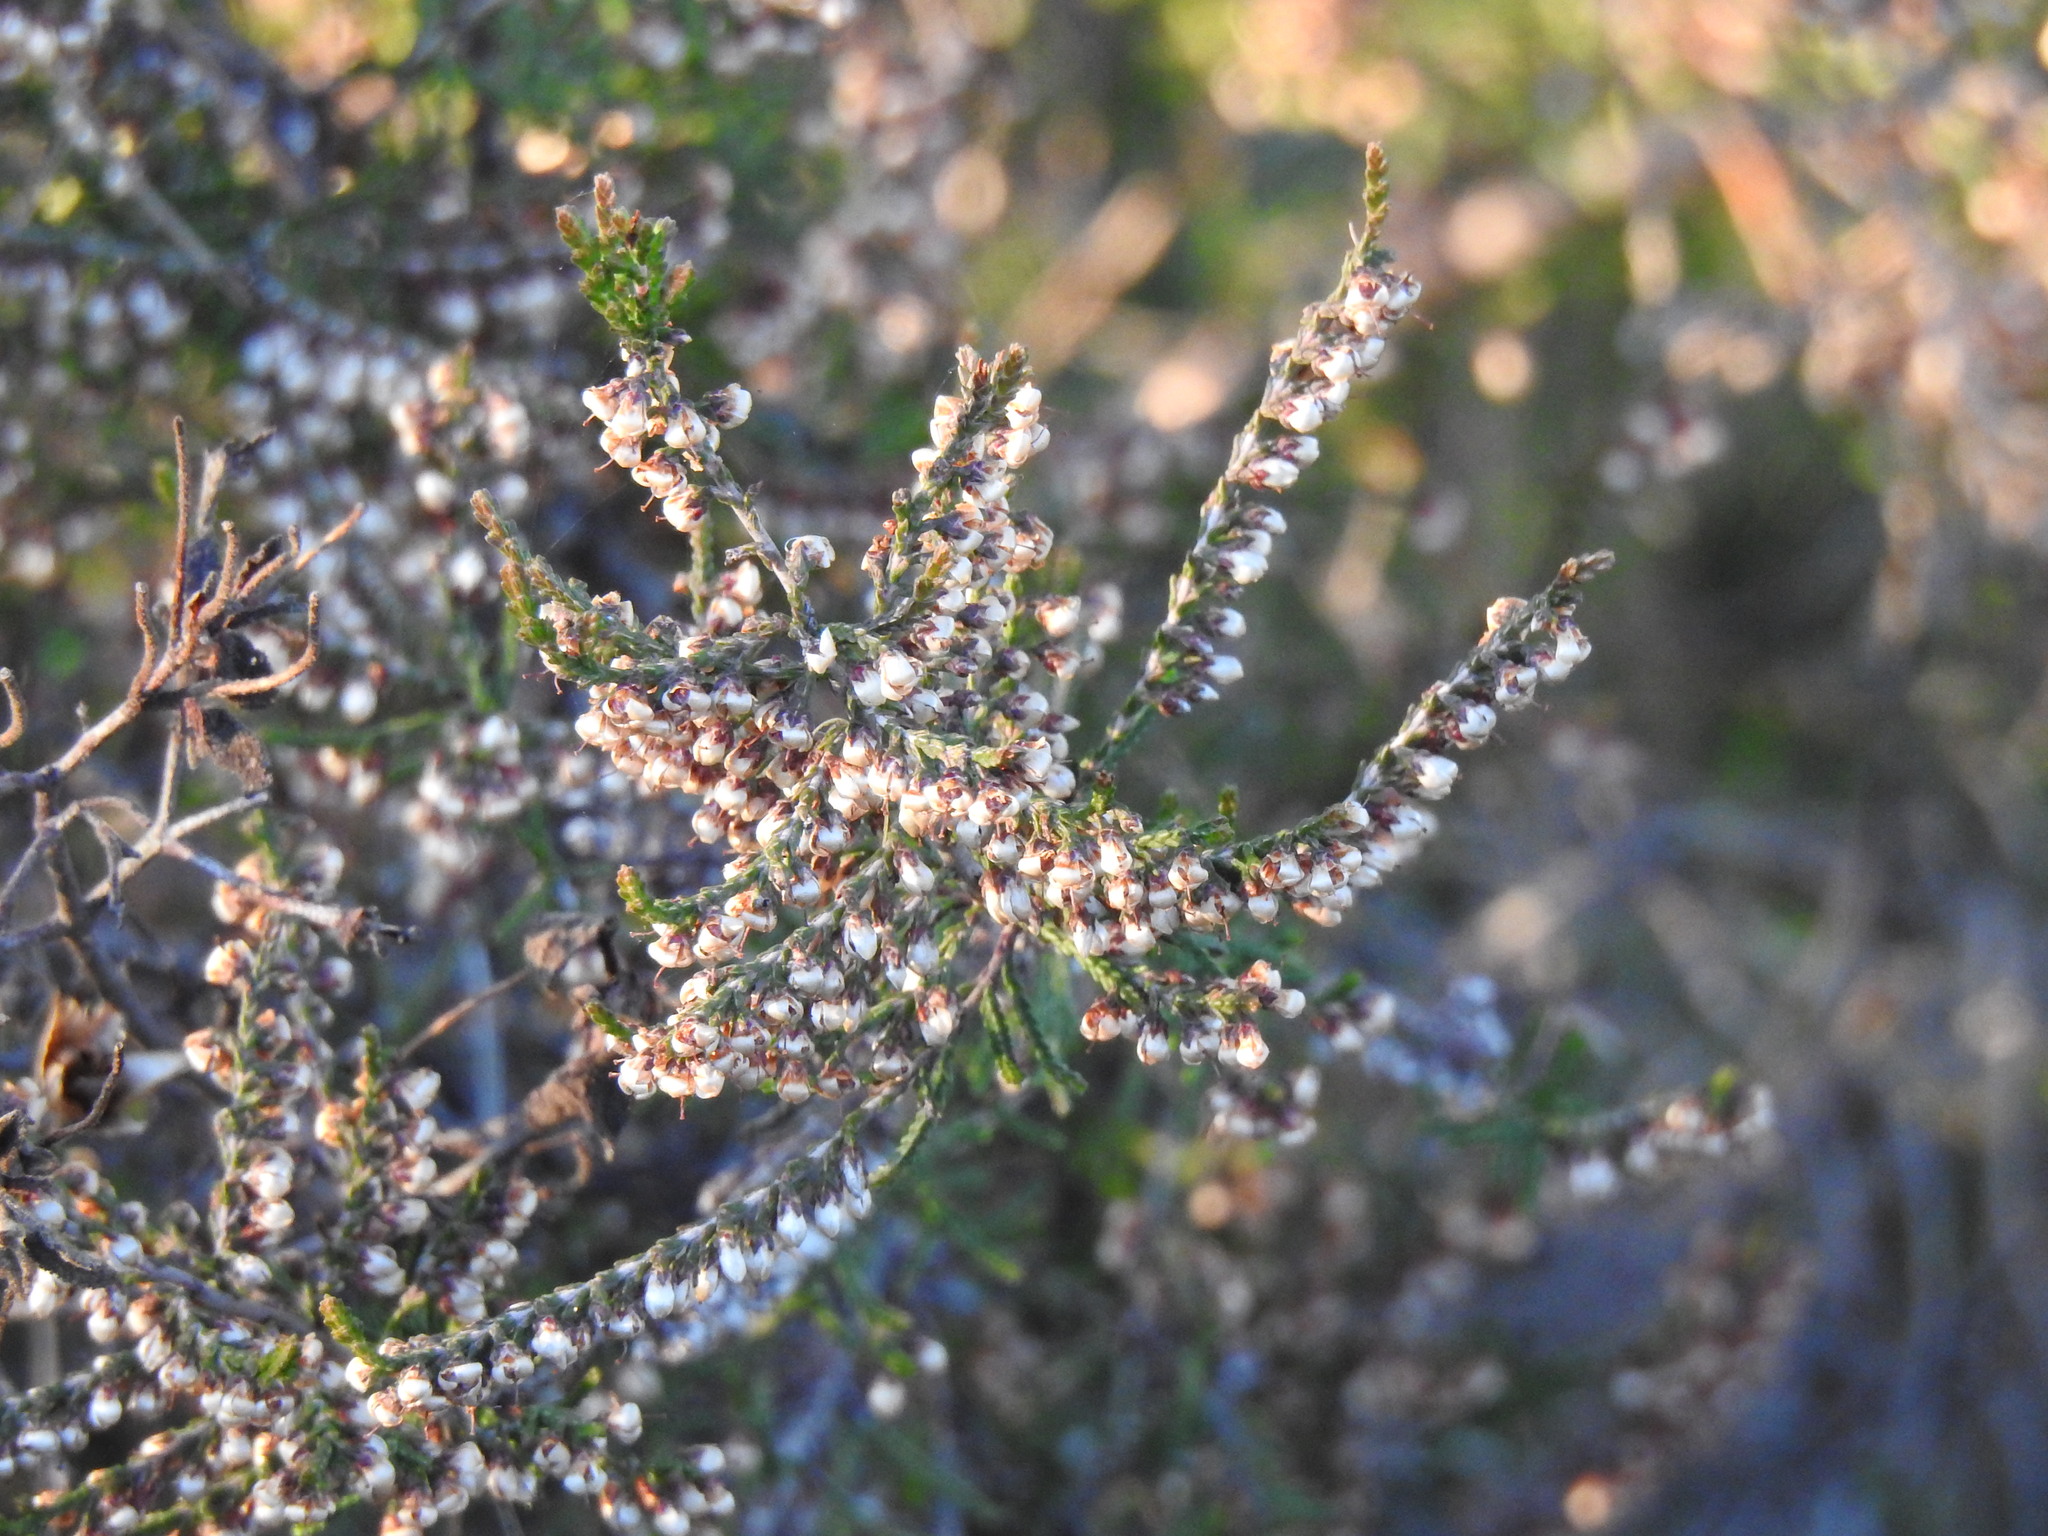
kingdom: Plantae
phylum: Tracheophyta
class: Magnoliopsida
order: Ericales
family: Ericaceae
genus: Calluna
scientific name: Calluna vulgaris
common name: Heather
